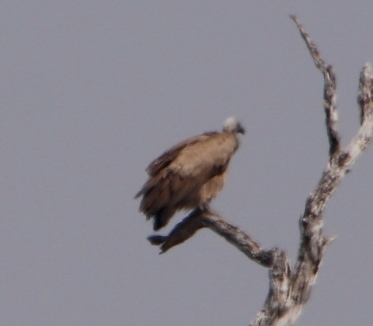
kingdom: Animalia
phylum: Chordata
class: Aves
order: Accipitriformes
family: Accipitridae
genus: Gyps
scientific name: Gyps africanus
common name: White-backed vulture
